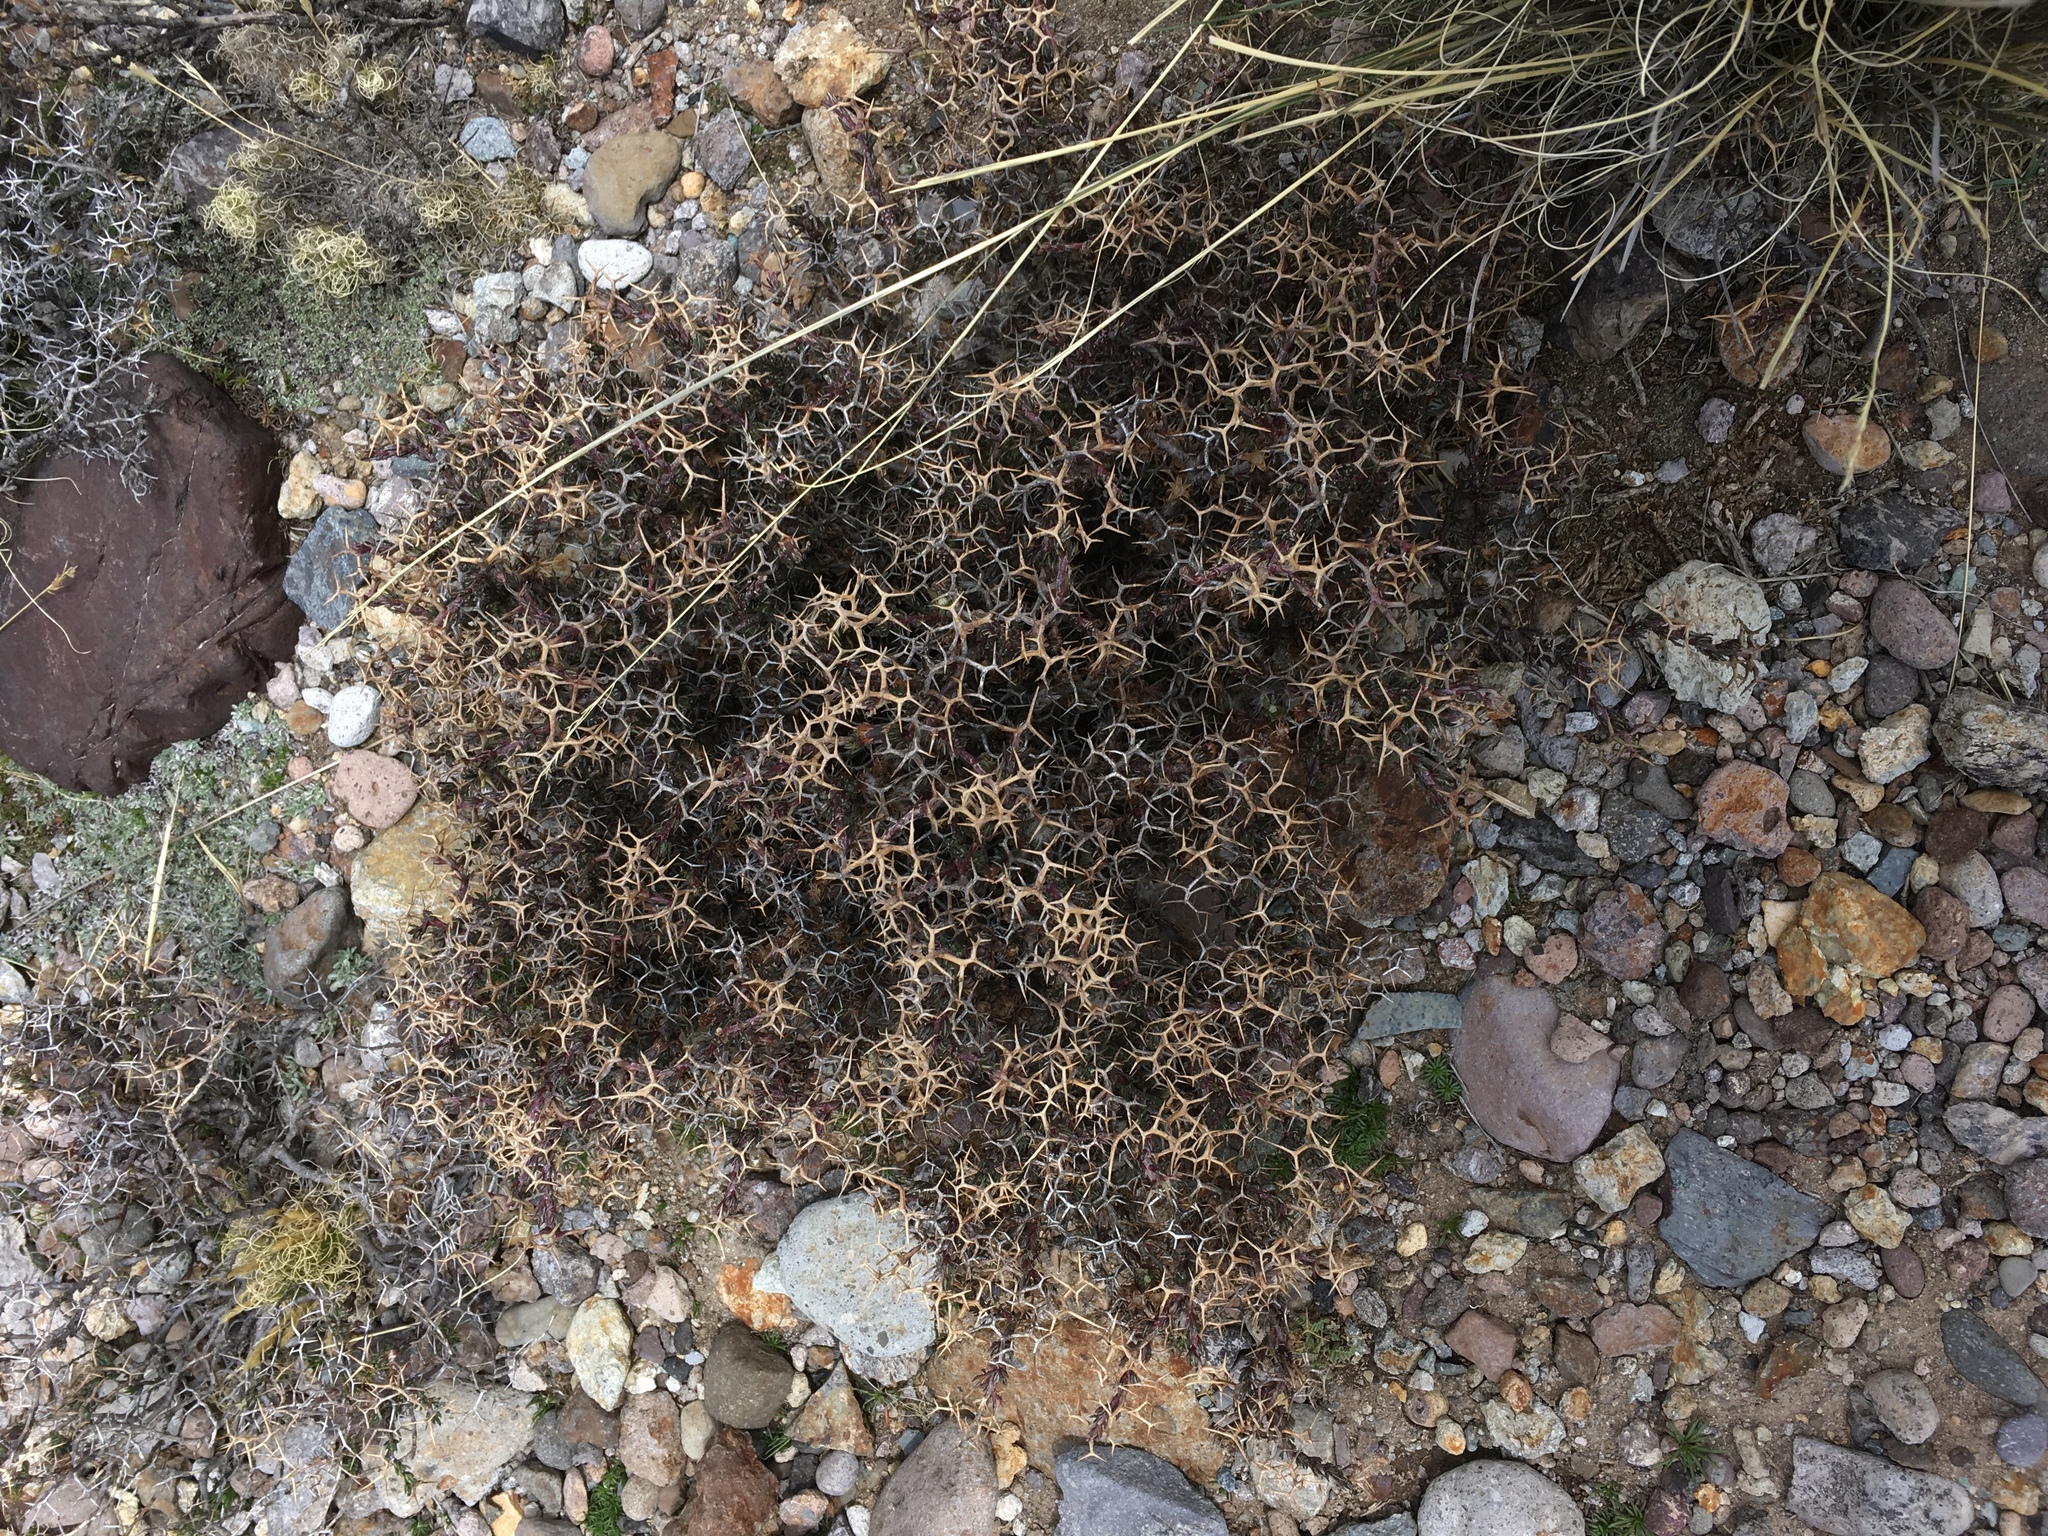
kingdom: Plantae
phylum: Tracheophyta
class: Magnoliopsida
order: Asterales
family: Asteraceae
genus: Senecio
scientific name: Senecio spinosus
